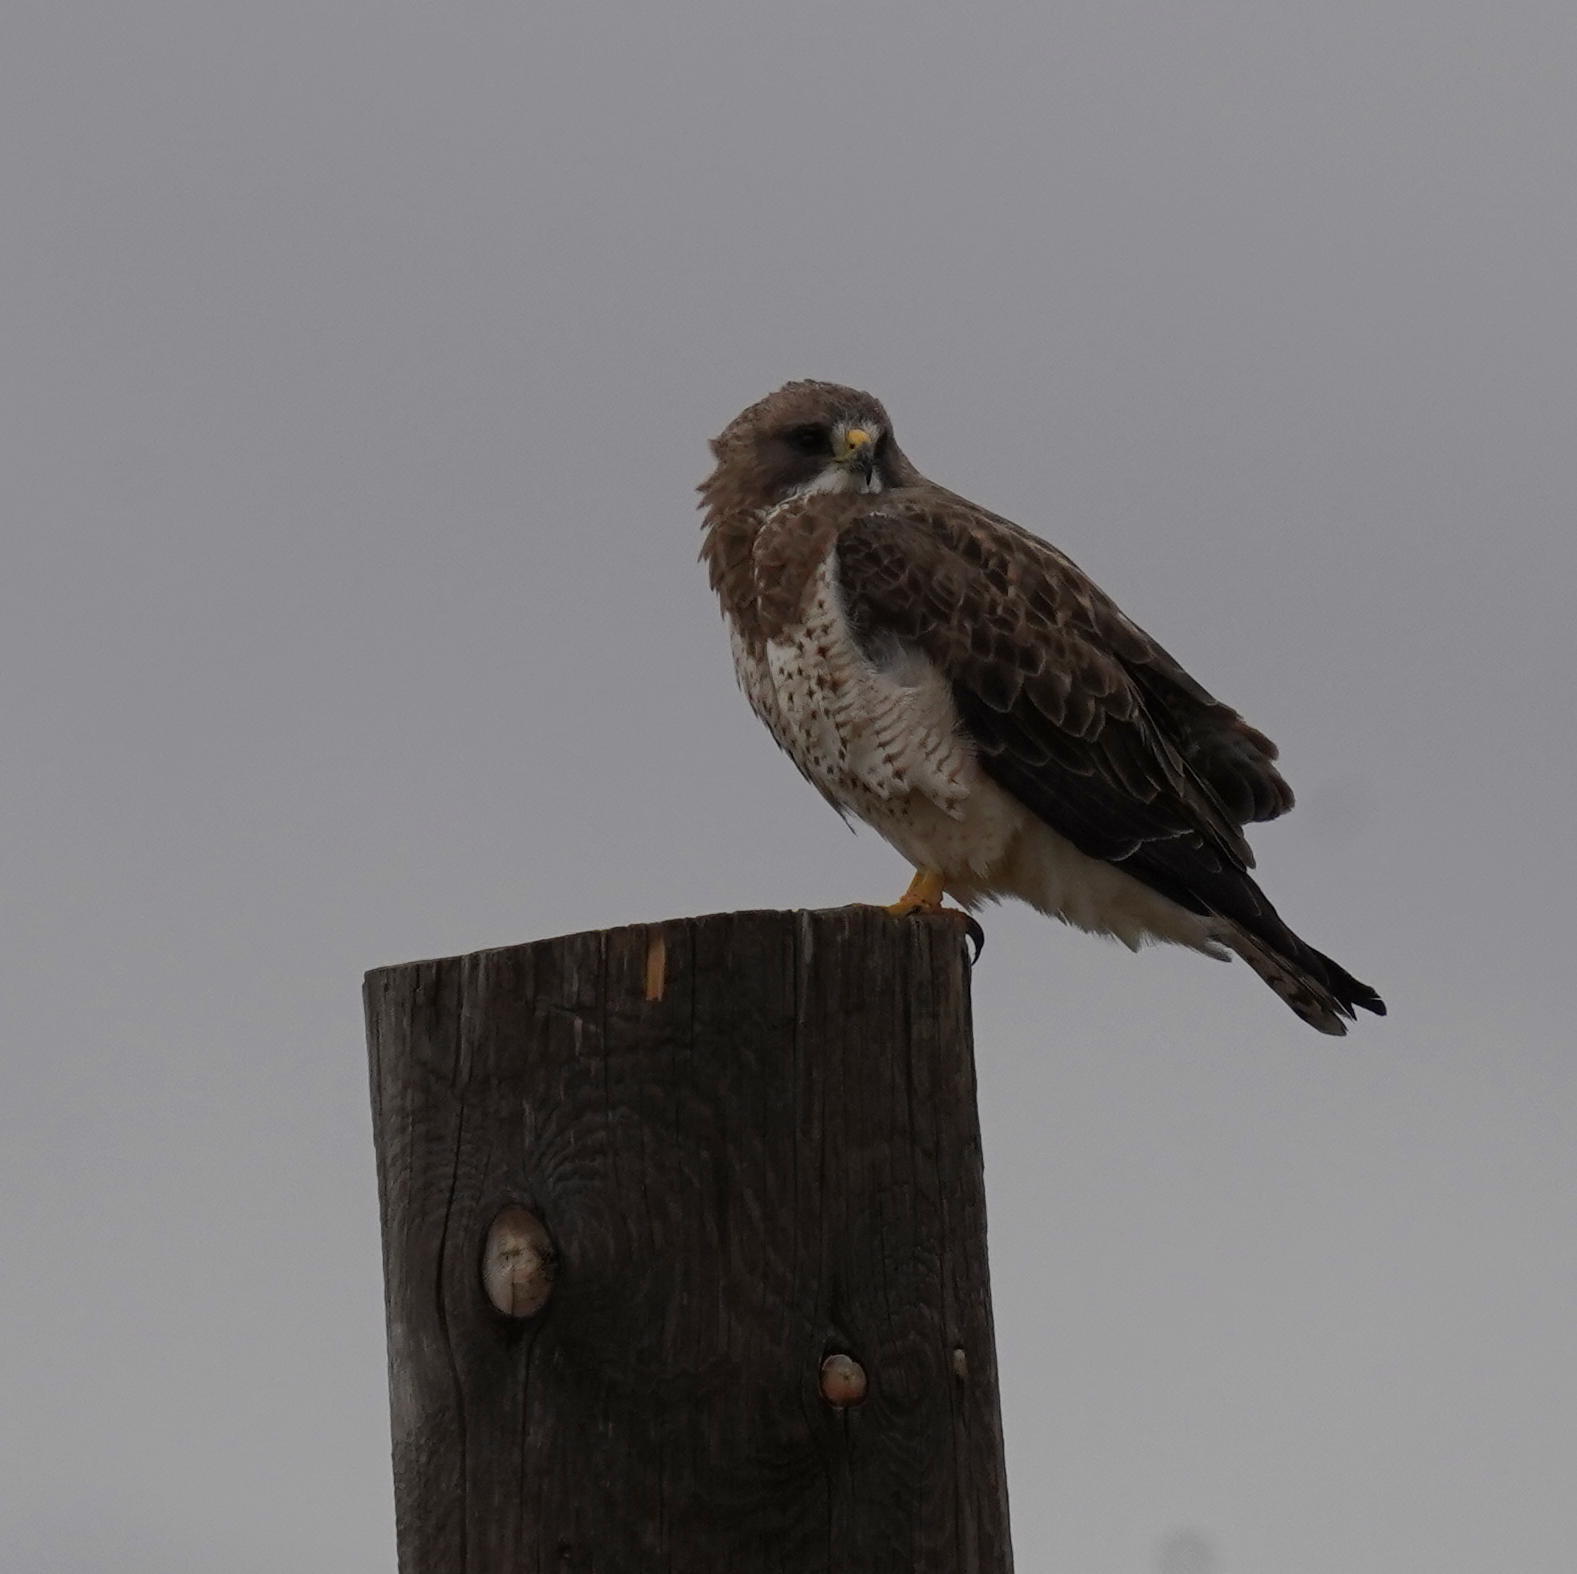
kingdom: Animalia
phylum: Chordata
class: Aves
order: Accipitriformes
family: Accipitridae
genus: Buteo
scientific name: Buteo swainsoni
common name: Swainson's hawk
